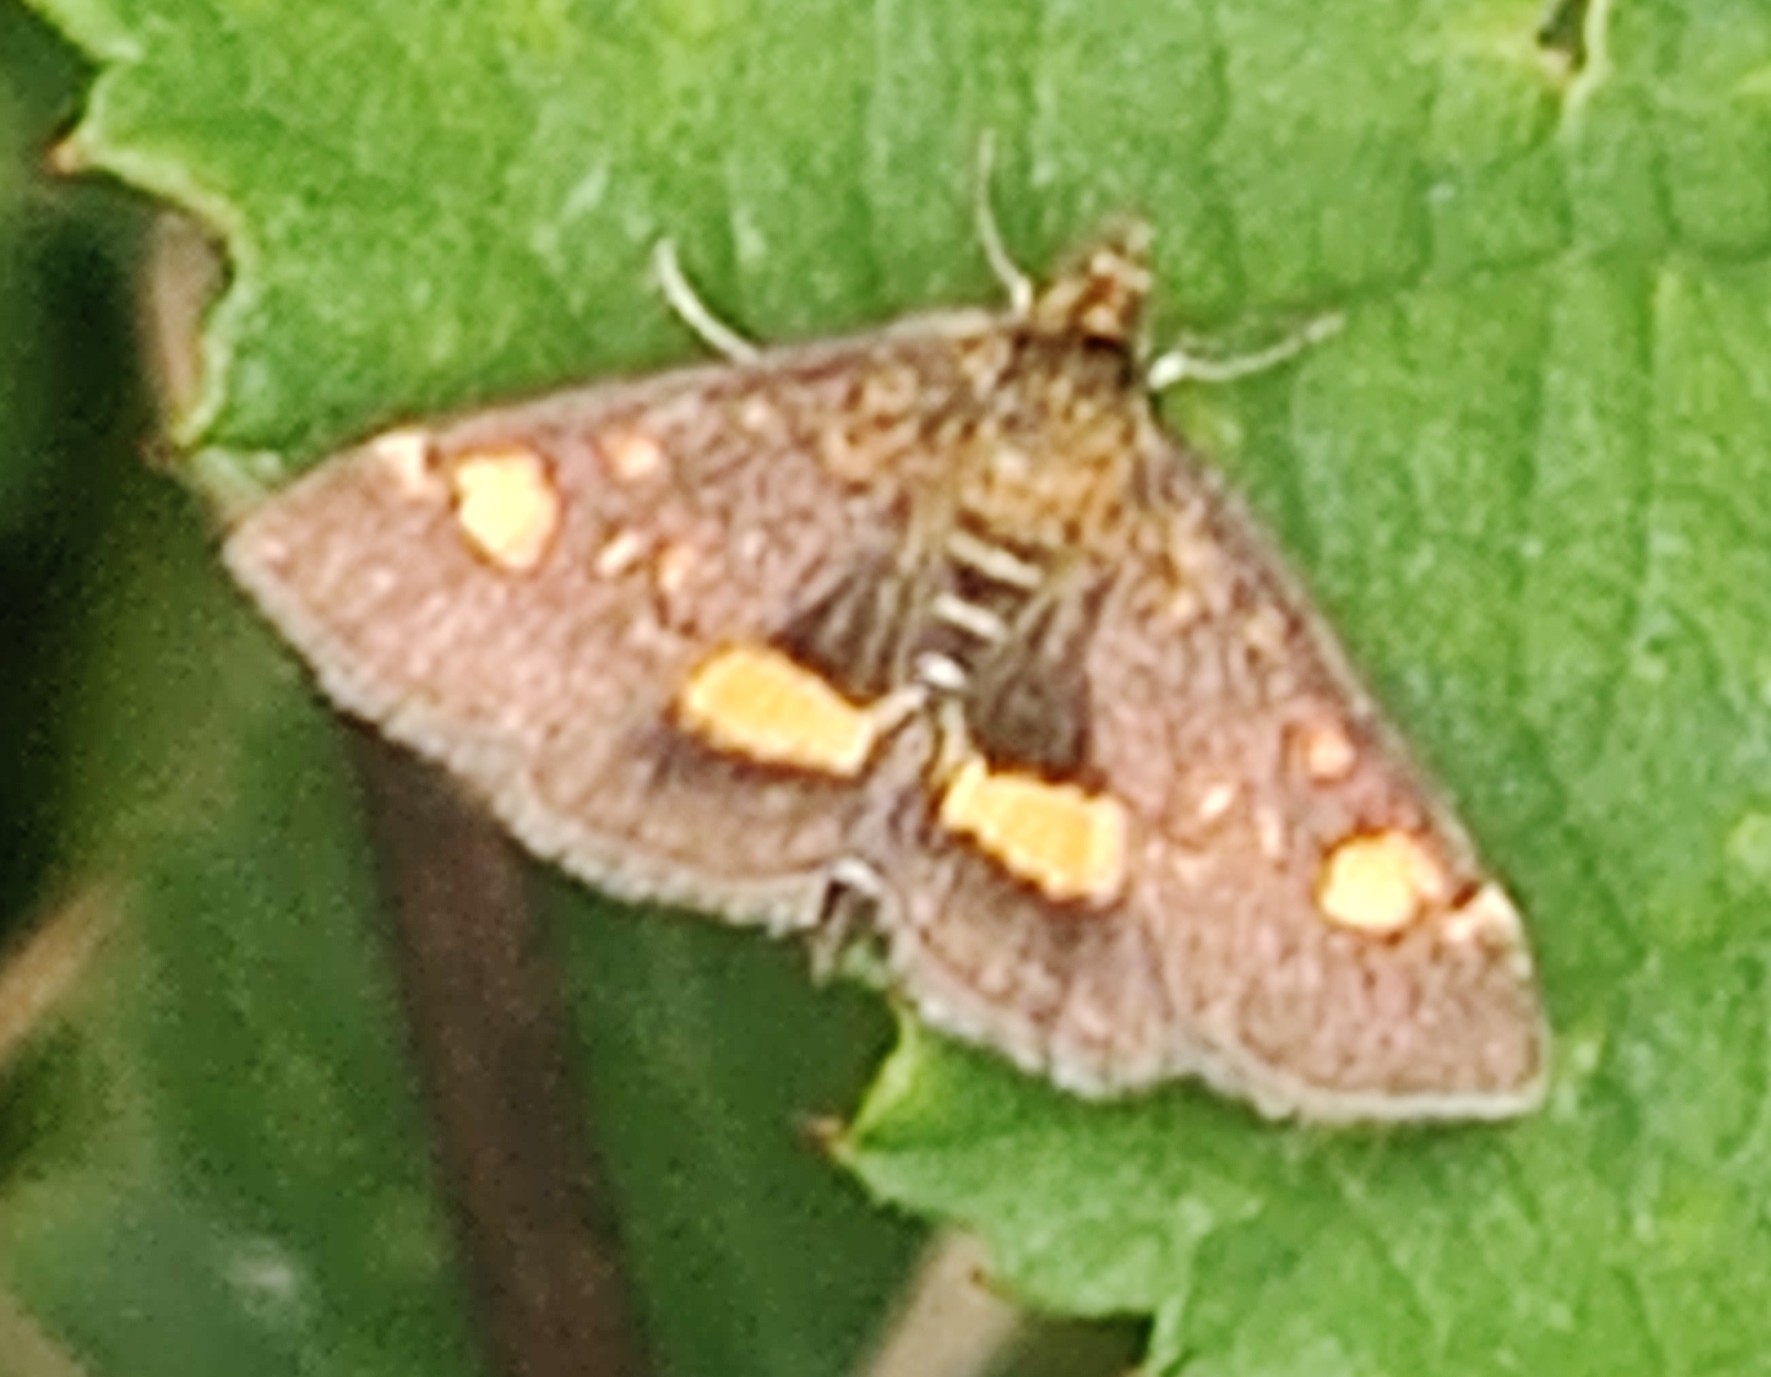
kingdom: Animalia
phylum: Arthropoda
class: Insecta
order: Lepidoptera
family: Crambidae
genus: Pyrausta
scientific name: Pyrausta aurata
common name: Small purple & gold
